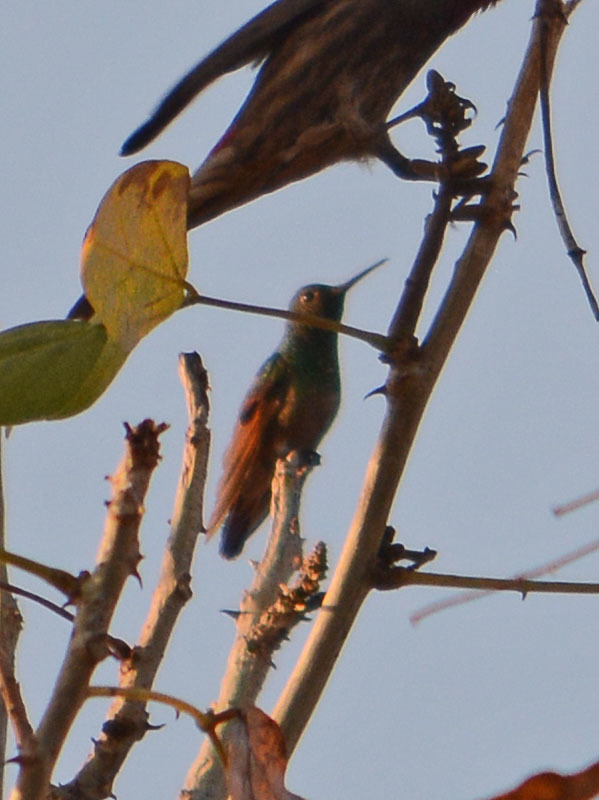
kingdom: Animalia
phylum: Chordata
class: Aves
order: Apodiformes
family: Trochilidae
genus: Saucerottia
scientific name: Saucerottia beryllina
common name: Berylline hummingbird
